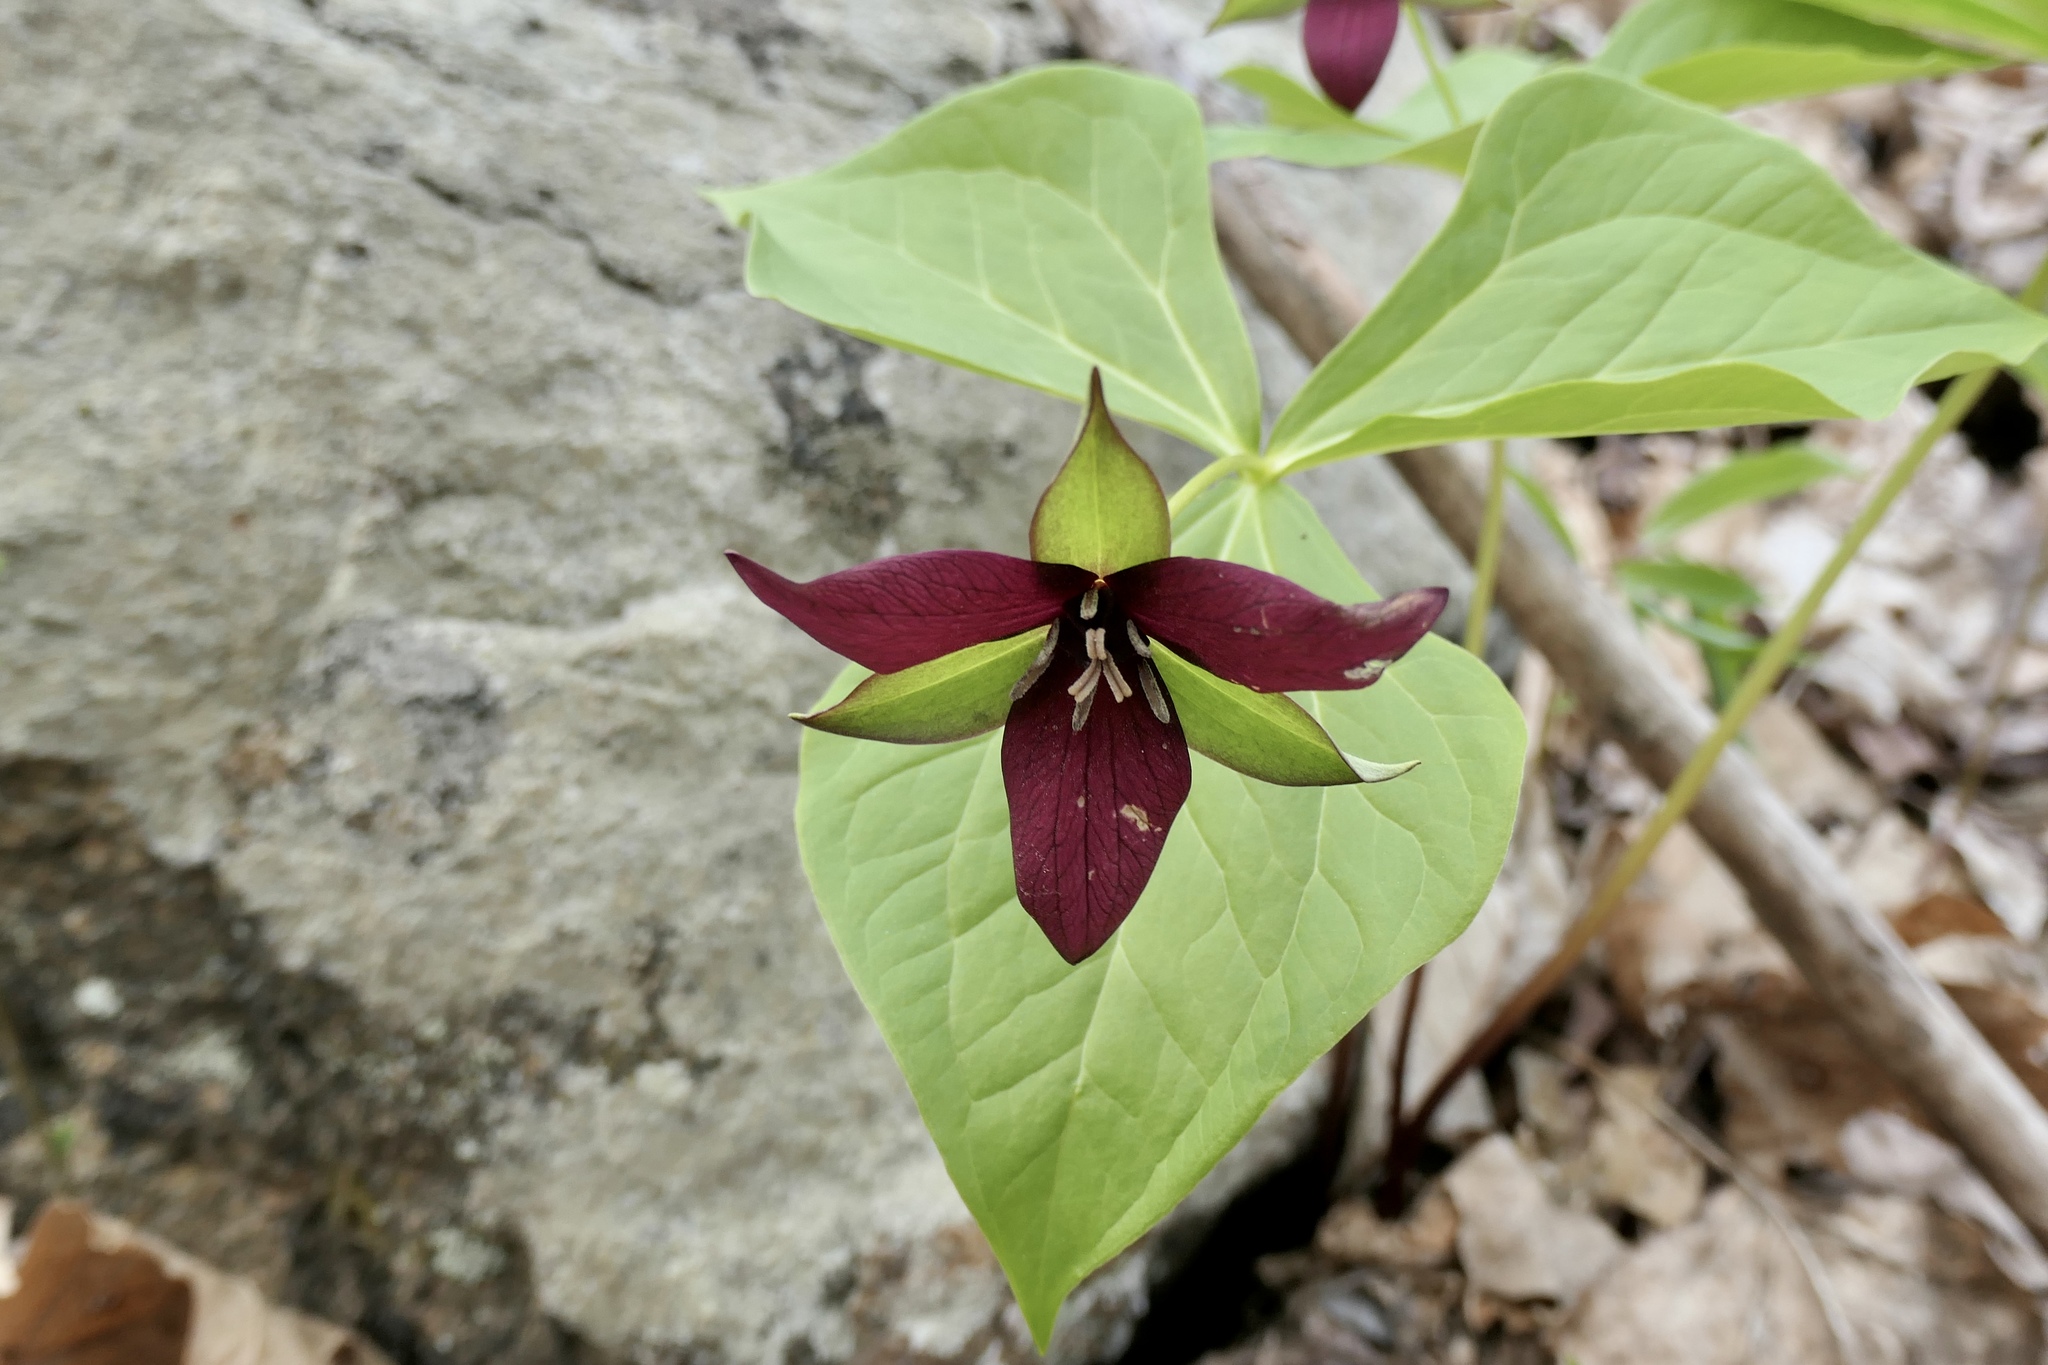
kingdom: Plantae
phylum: Tracheophyta
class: Liliopsida
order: Liliales
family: Melanthiaceae
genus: Trillium
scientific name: Trillium erectum
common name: Purple trillium
